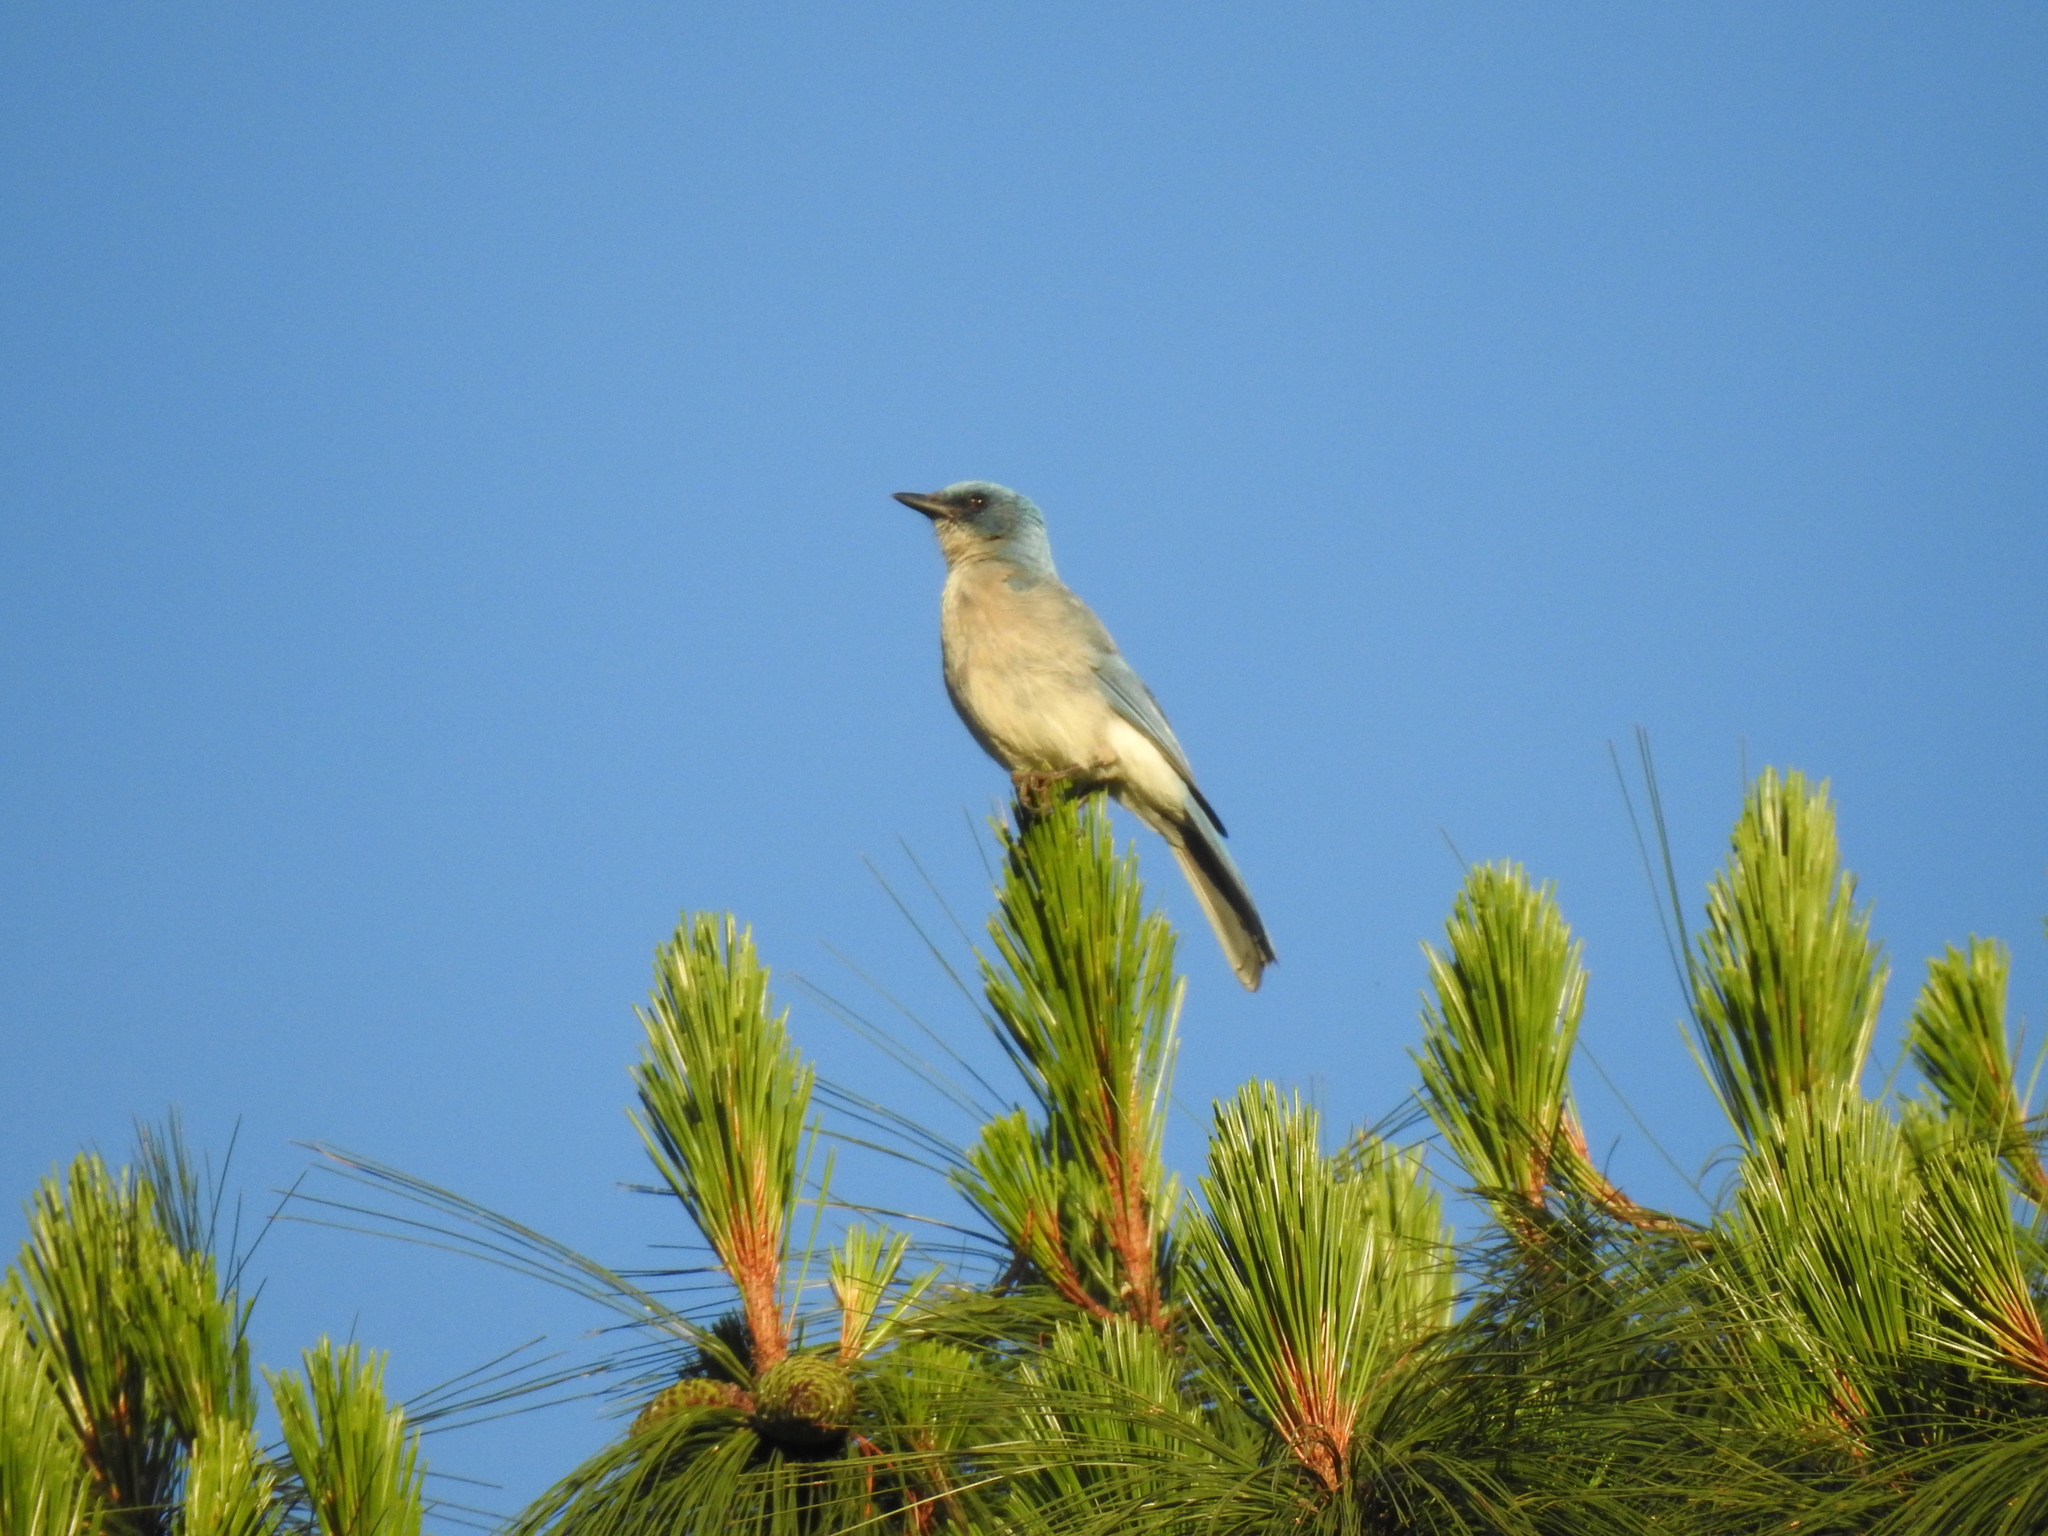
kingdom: Animalia
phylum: Chordata
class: Aves
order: Passeriformes
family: Corvidae
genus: Aphelocoma
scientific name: Aphelocoma wollweberi
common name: Mexican jay
